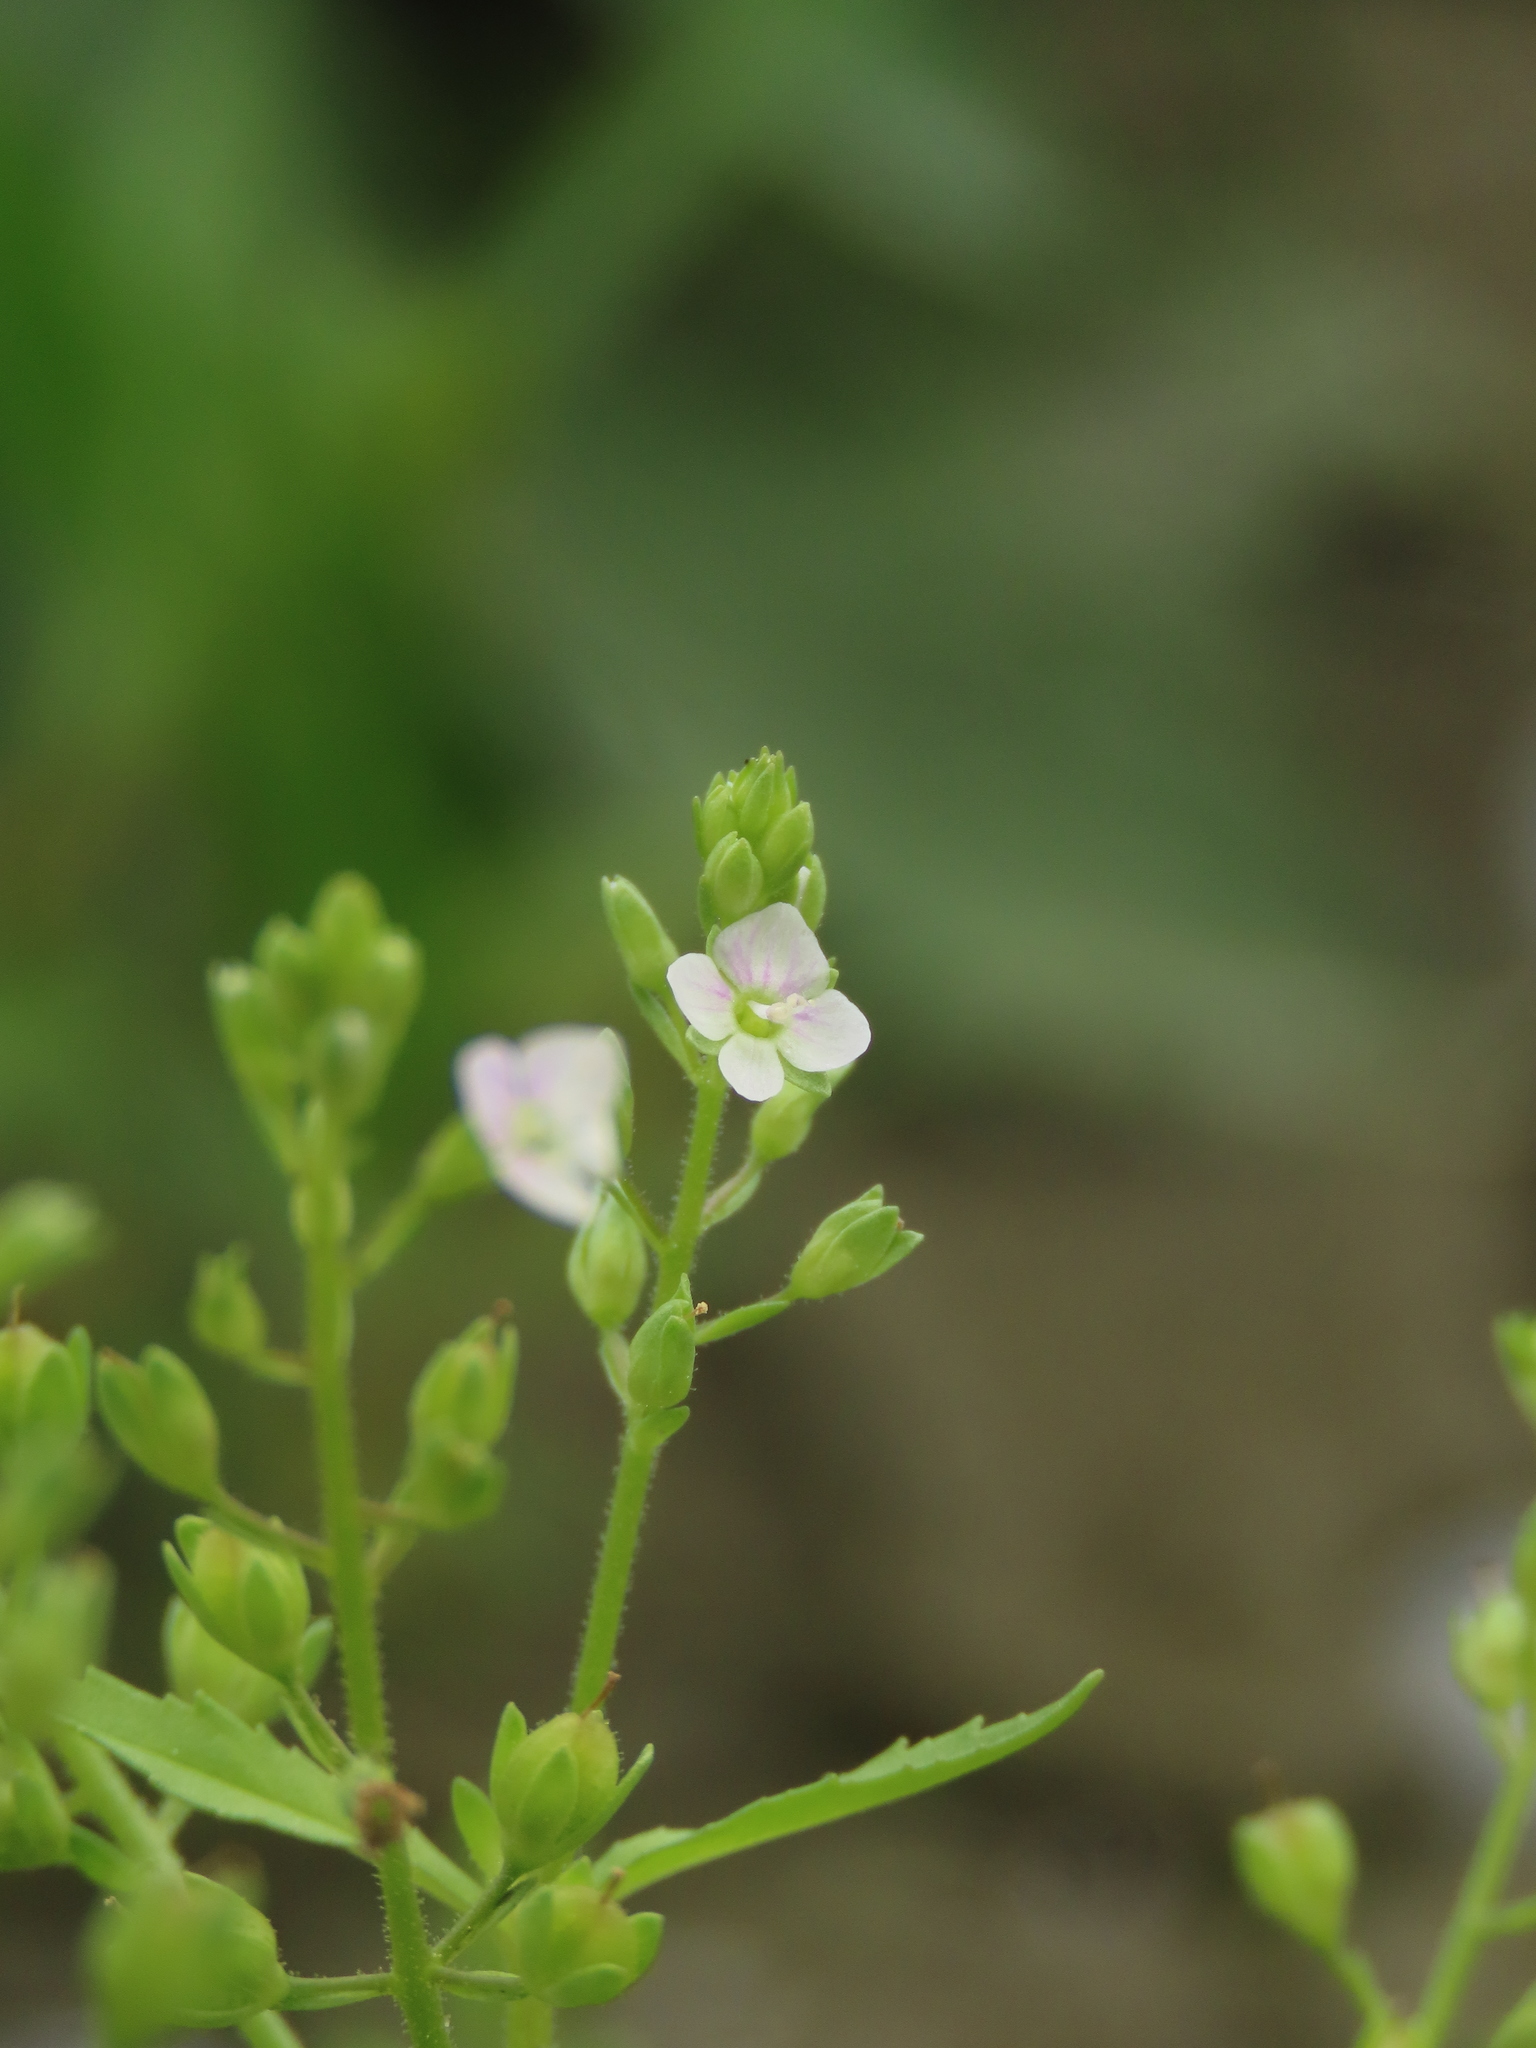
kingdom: Plantae
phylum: Tracheophyta
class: Magnoliopsida
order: Lamiales
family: Plantaginaceae
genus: Veronica
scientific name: Veronica undulata
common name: Undulate speedwell
